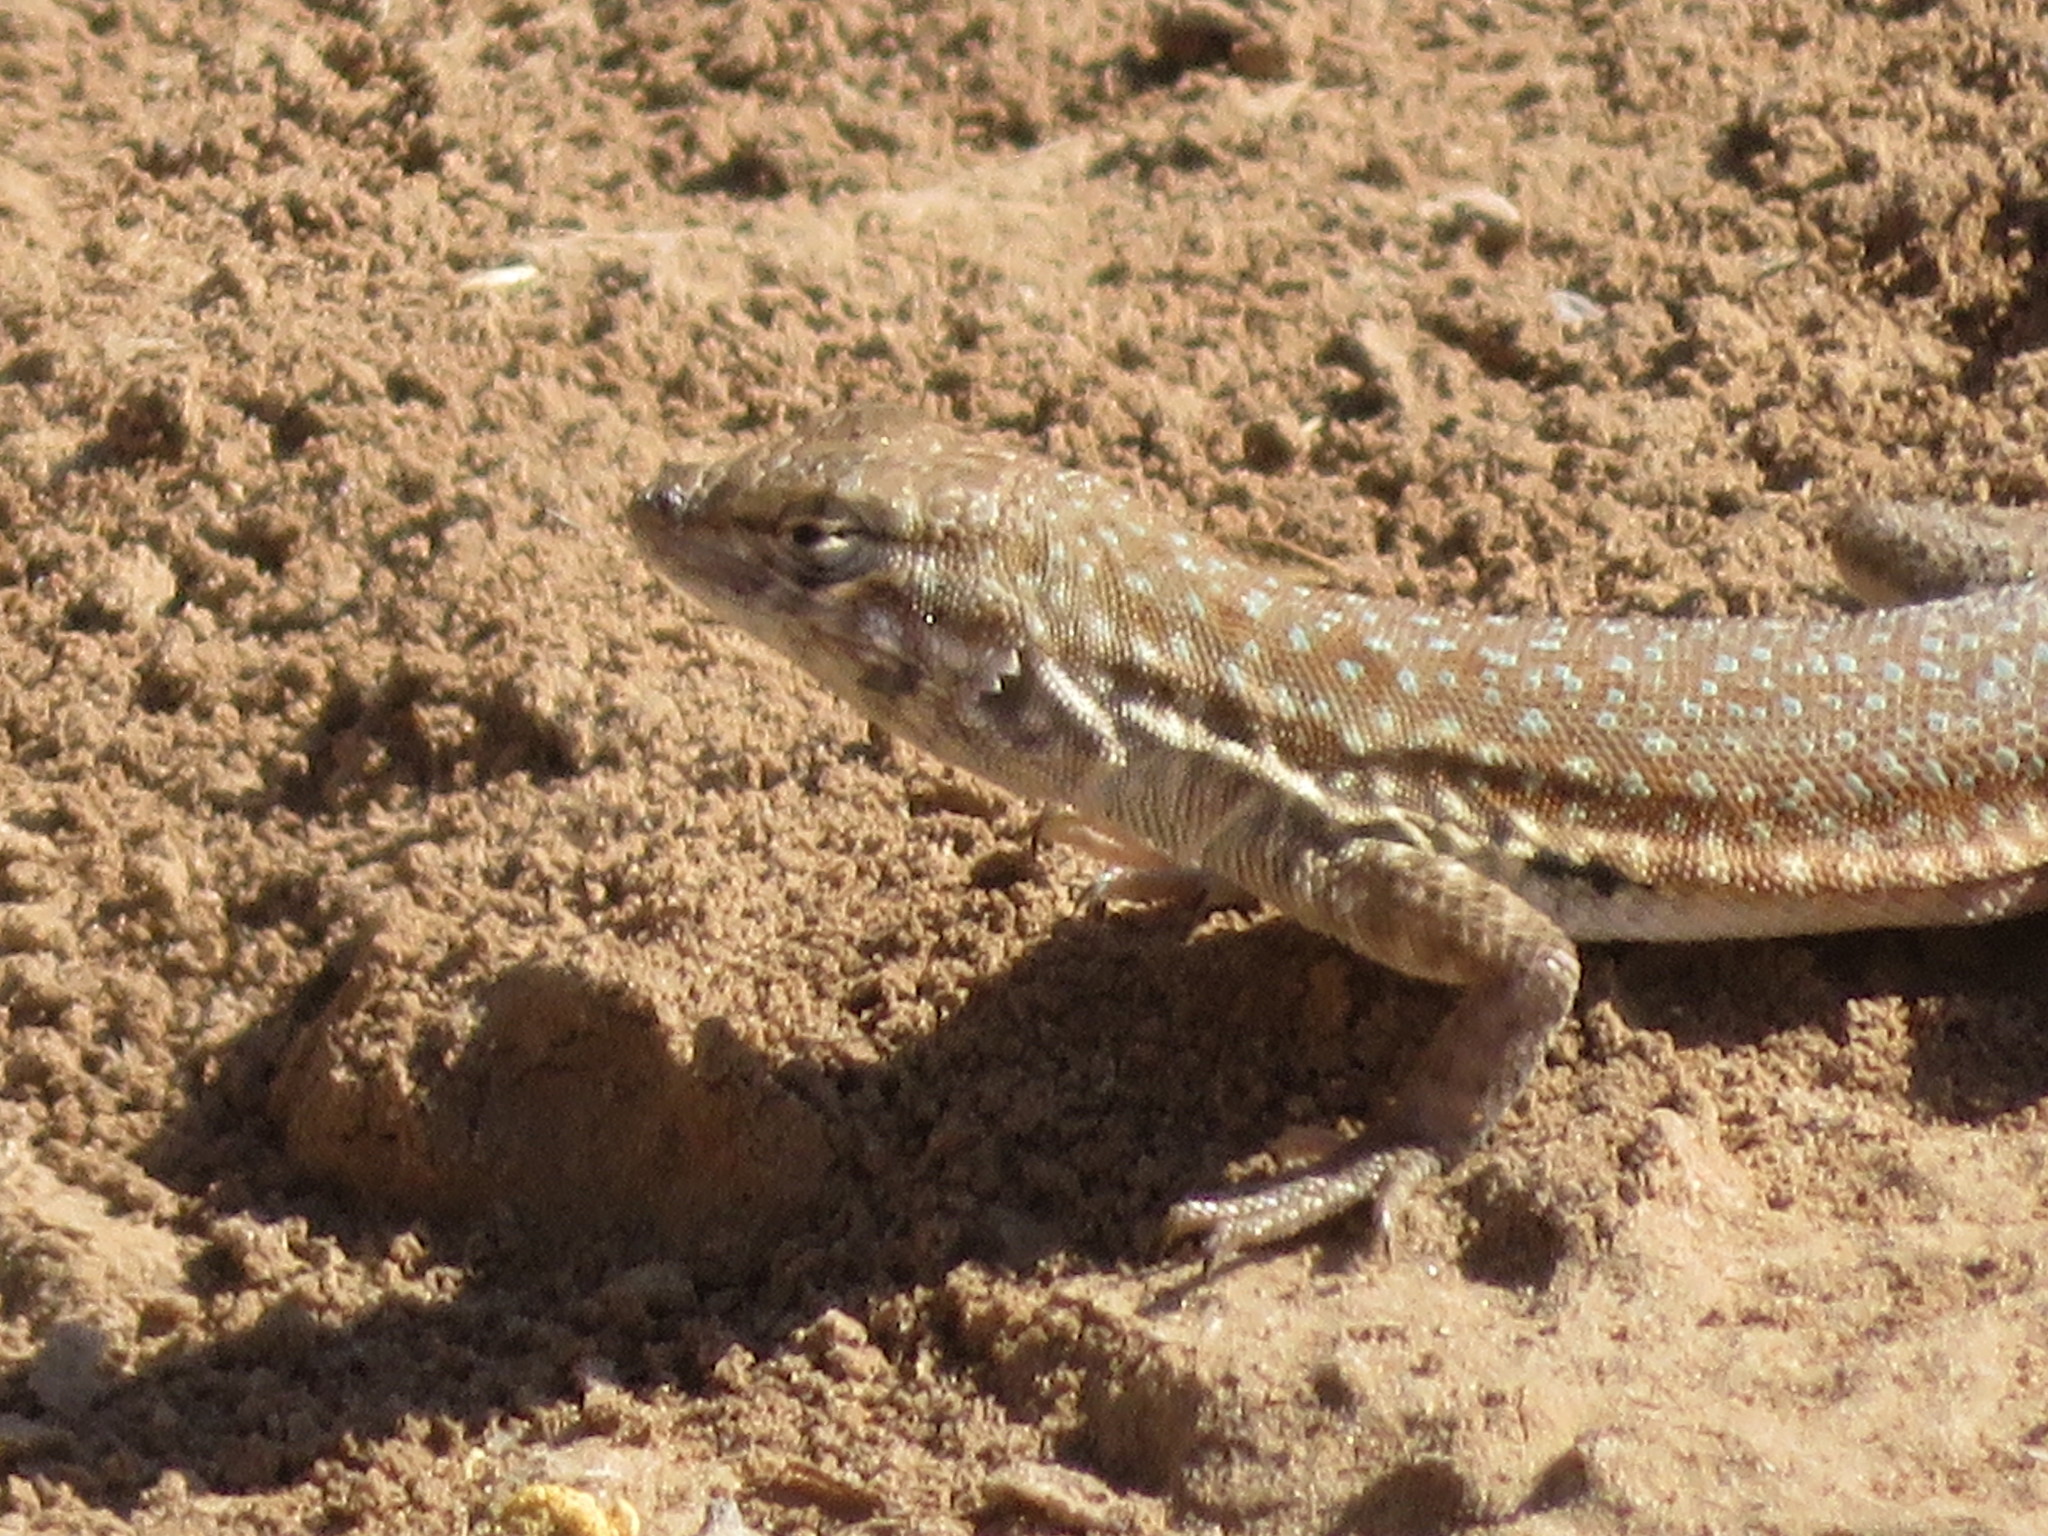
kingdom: Animalia
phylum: Chordata
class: Squamata
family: Phrynosomatidae
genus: Uta
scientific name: Uta stansburiana
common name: Side-blotched lizard
